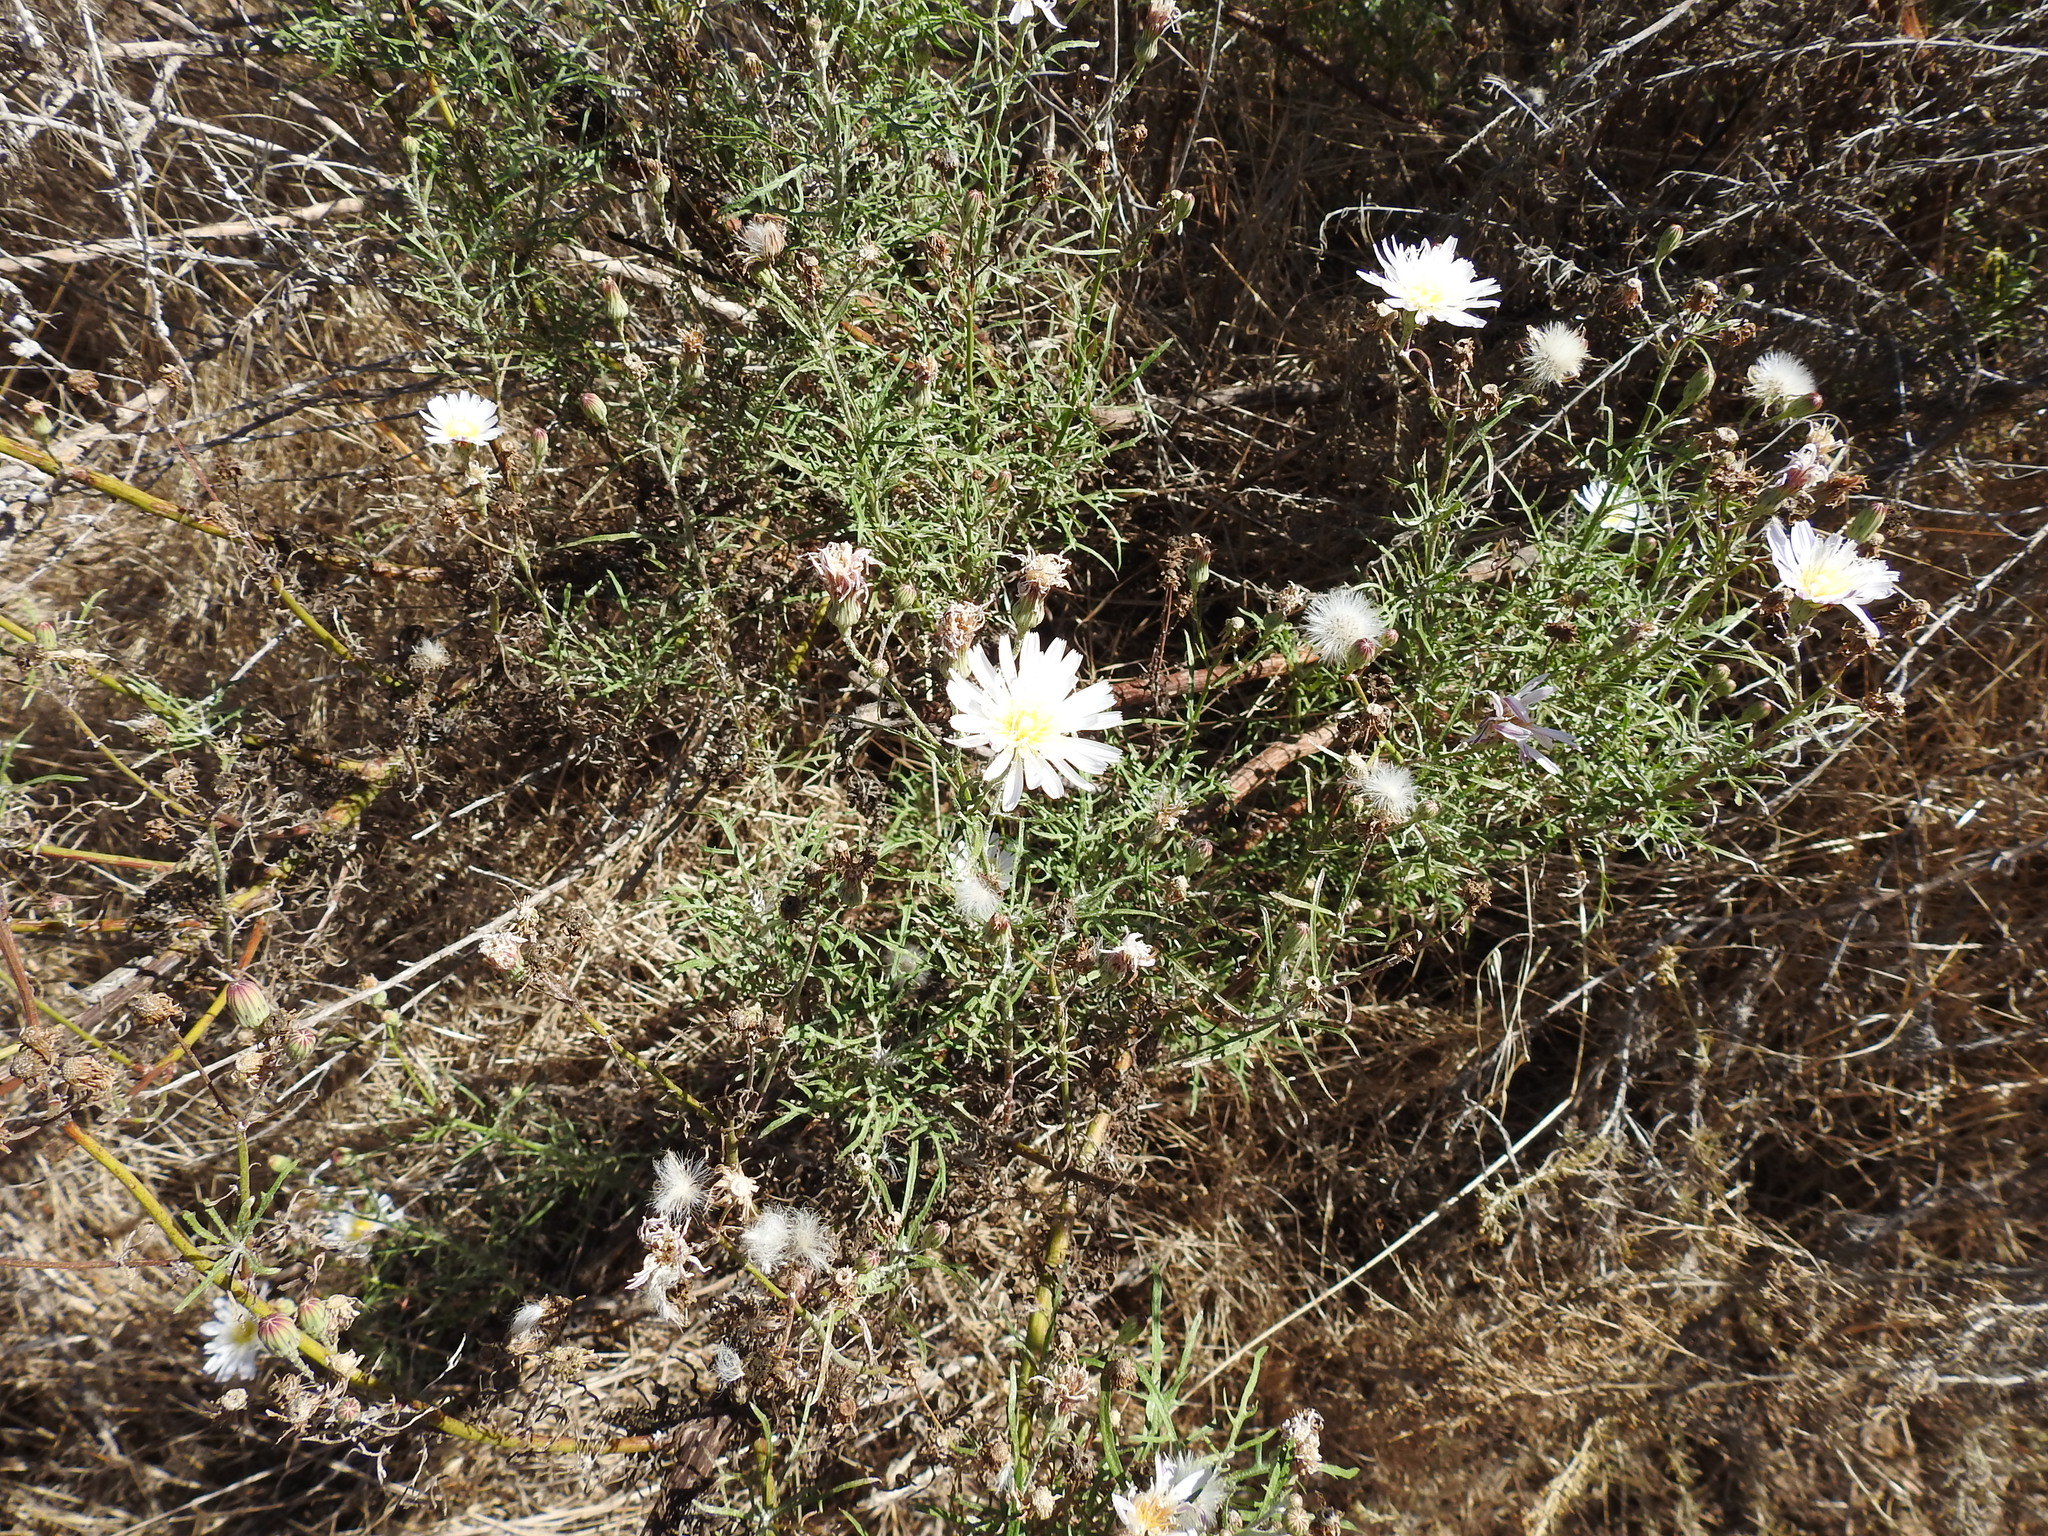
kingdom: Plantae
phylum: Tracheophyta
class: Magnoliopsida
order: Asterales
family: Asteraceae
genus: Malacothrix
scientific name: Malacothrix saxatilis
